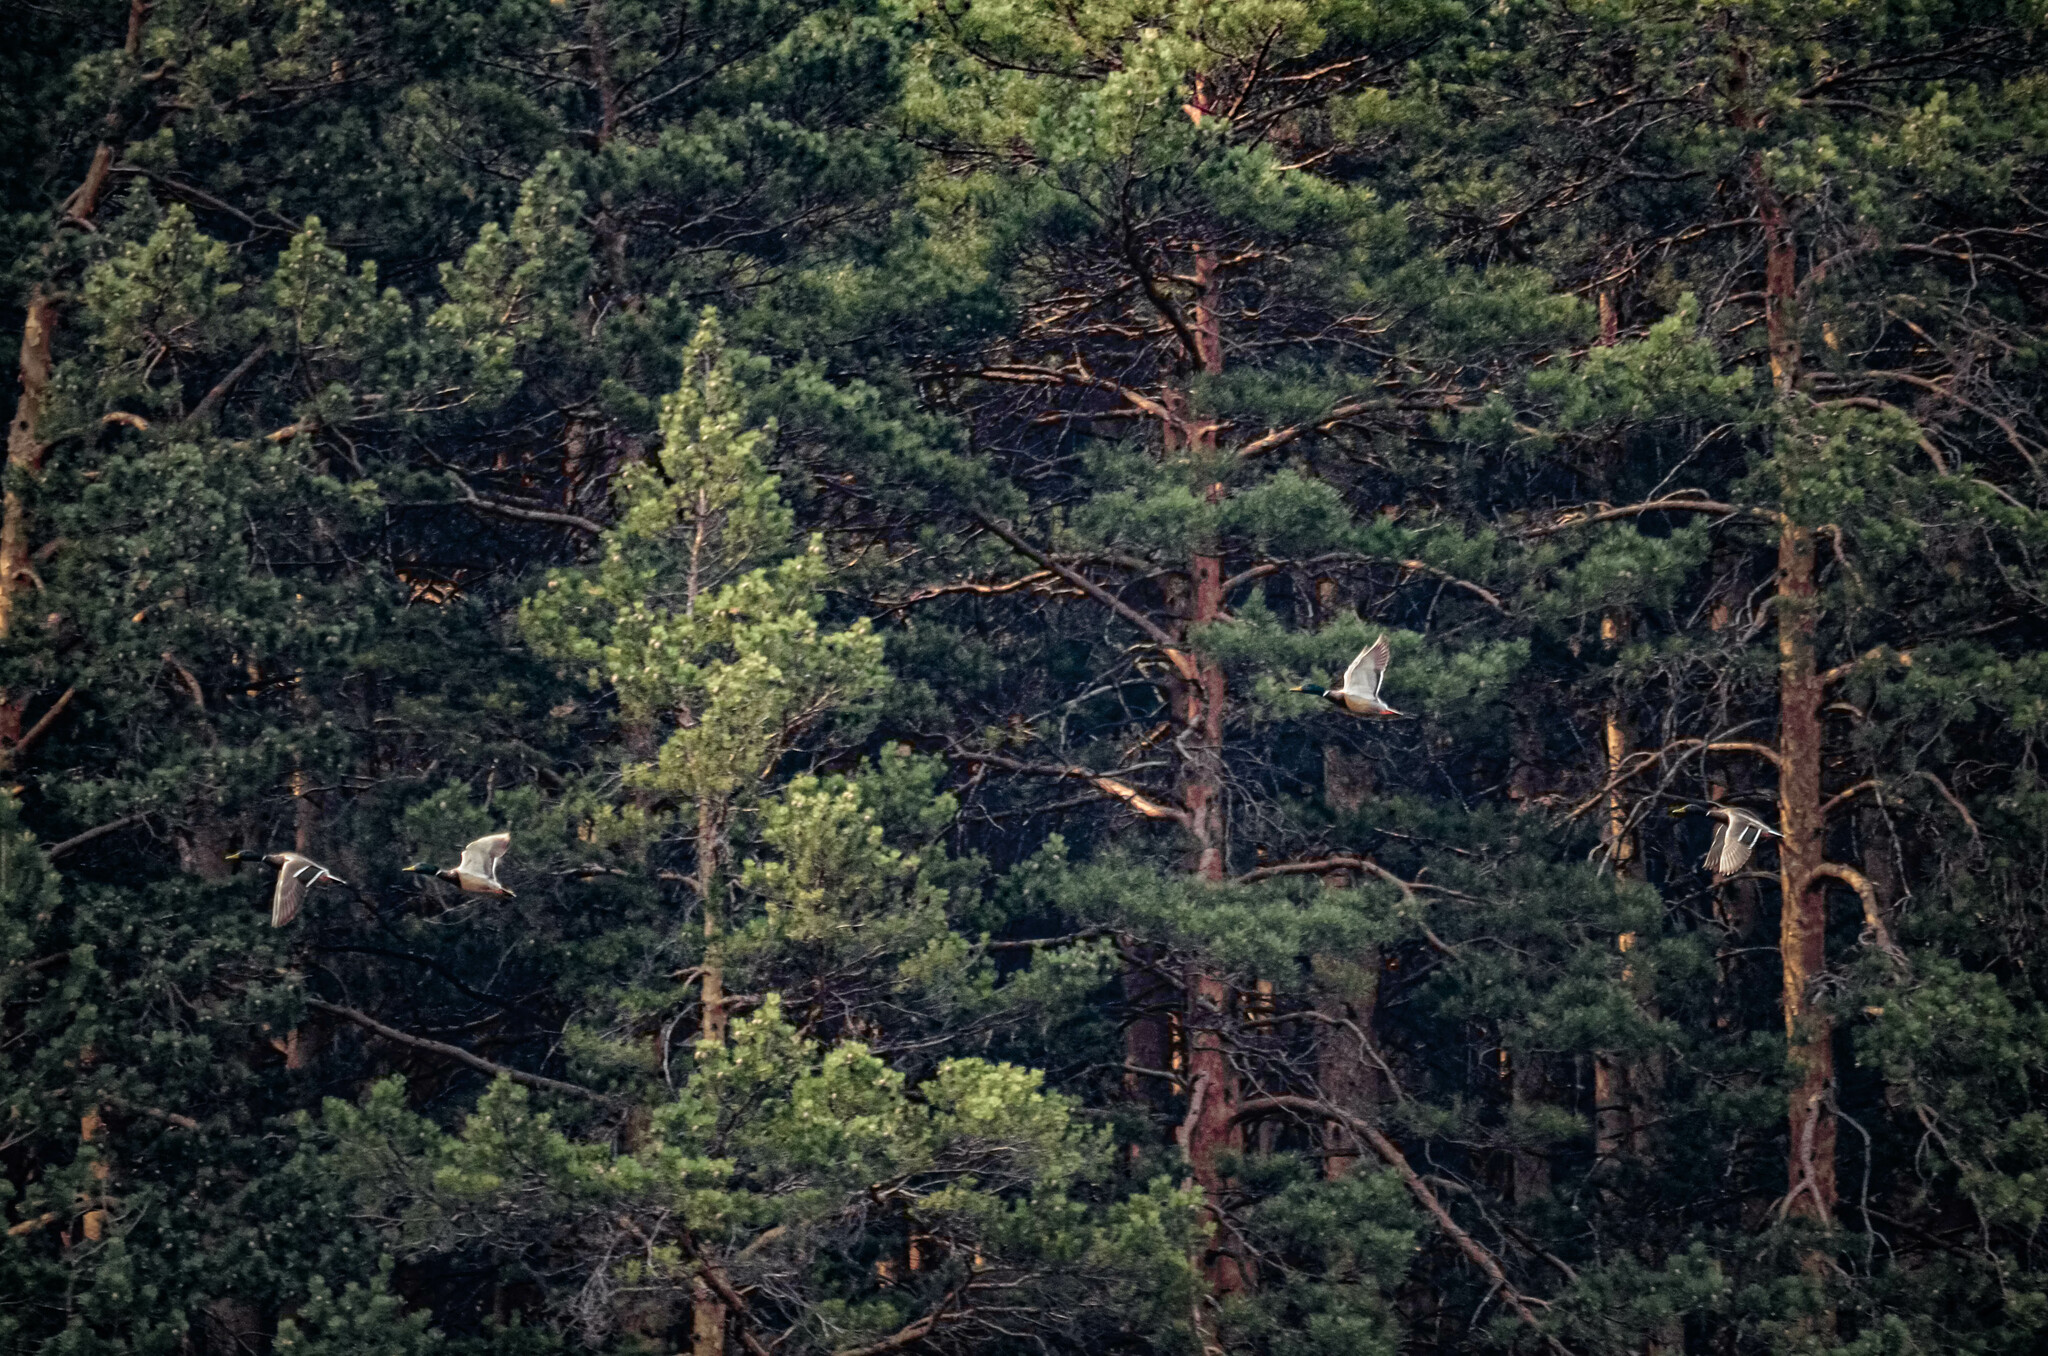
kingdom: Animalia
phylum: Chordata
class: Aves
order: Anseriformes
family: Anatidae
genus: Anas
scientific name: Anas platyrhynchos
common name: Mallard
